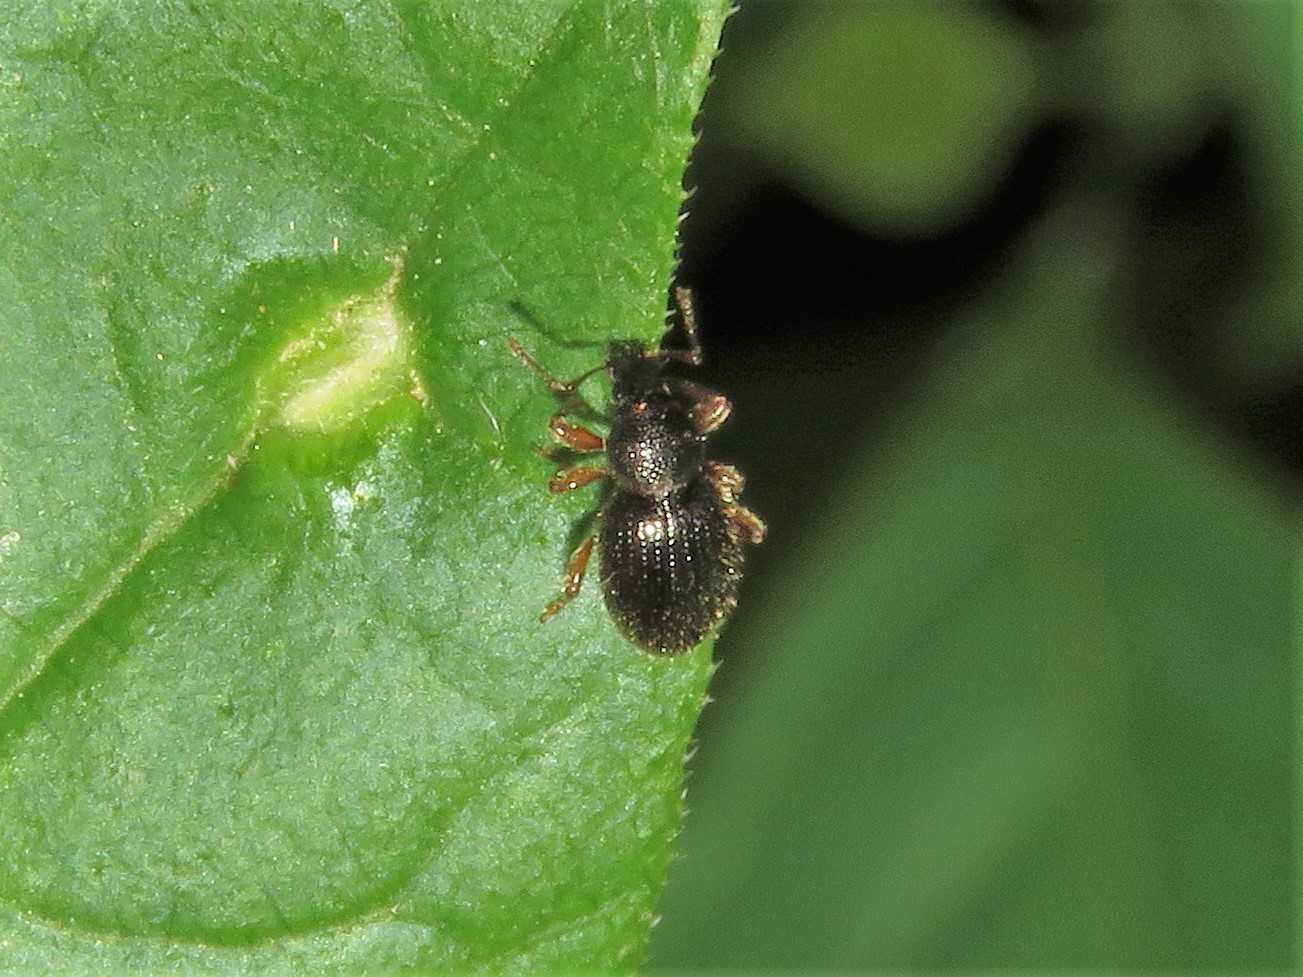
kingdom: Animalia
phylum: Arthropoda
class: Insecta
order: Coleoptera
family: Curculionidae
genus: Exomias
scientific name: Exomias pellucidus
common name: Hairy spider weevil
